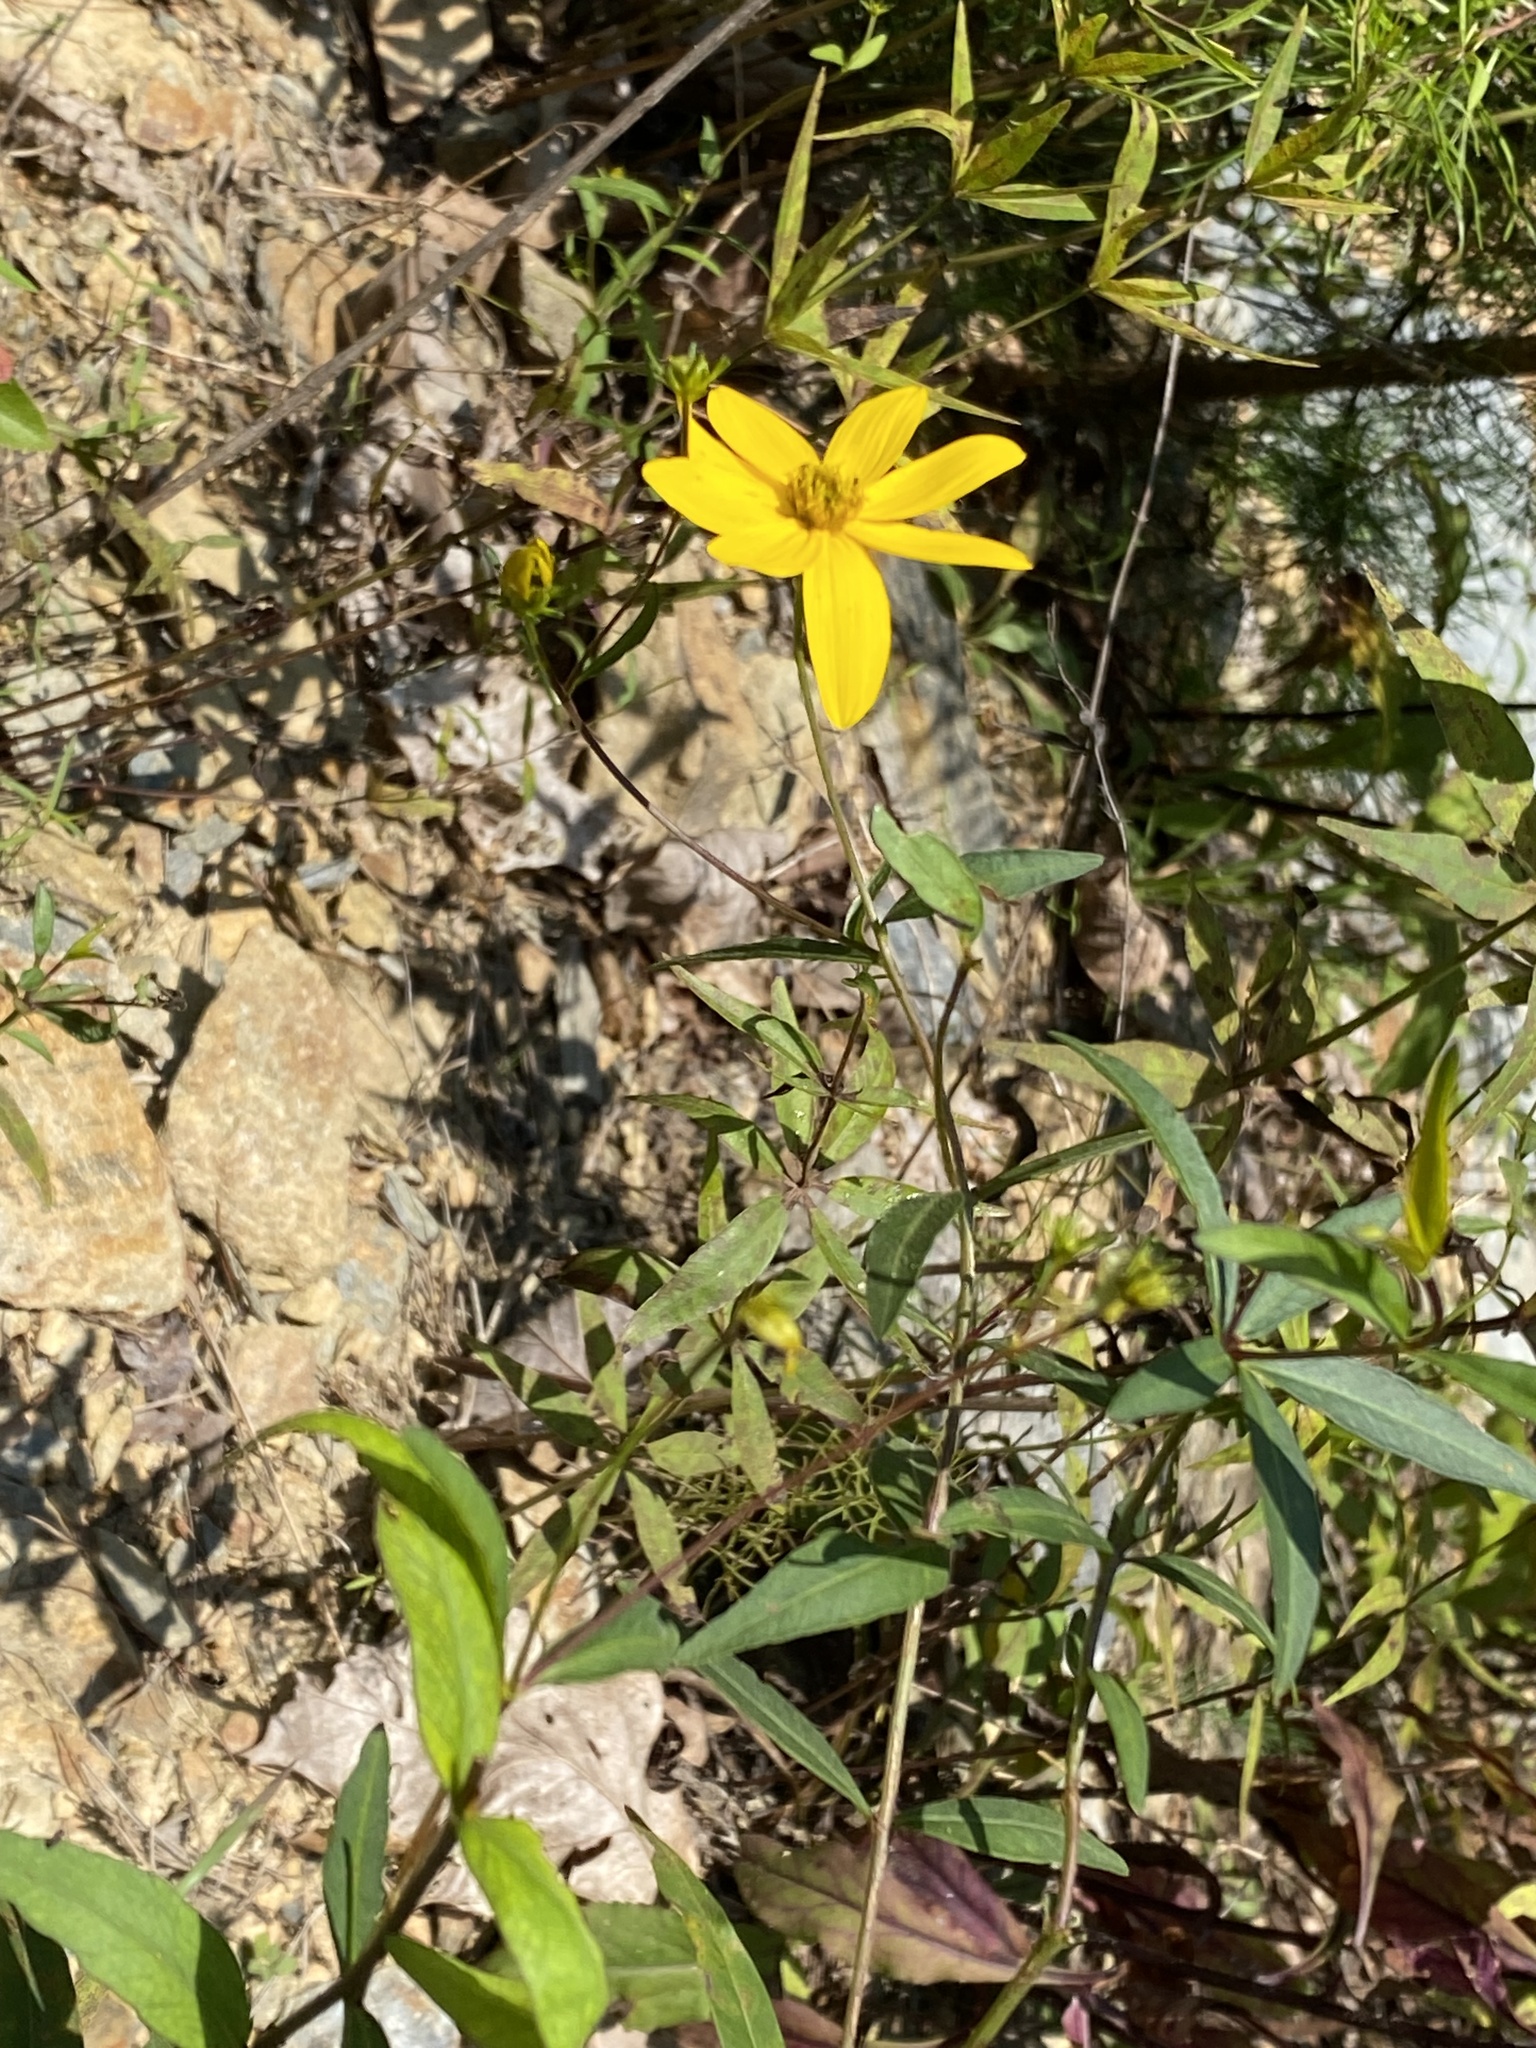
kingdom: Plantae
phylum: Tracheophyta
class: Magnoliopsida
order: Asterales
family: Asteraceae
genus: Coreopsis
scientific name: Coreopsis major
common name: Forest tickseed
